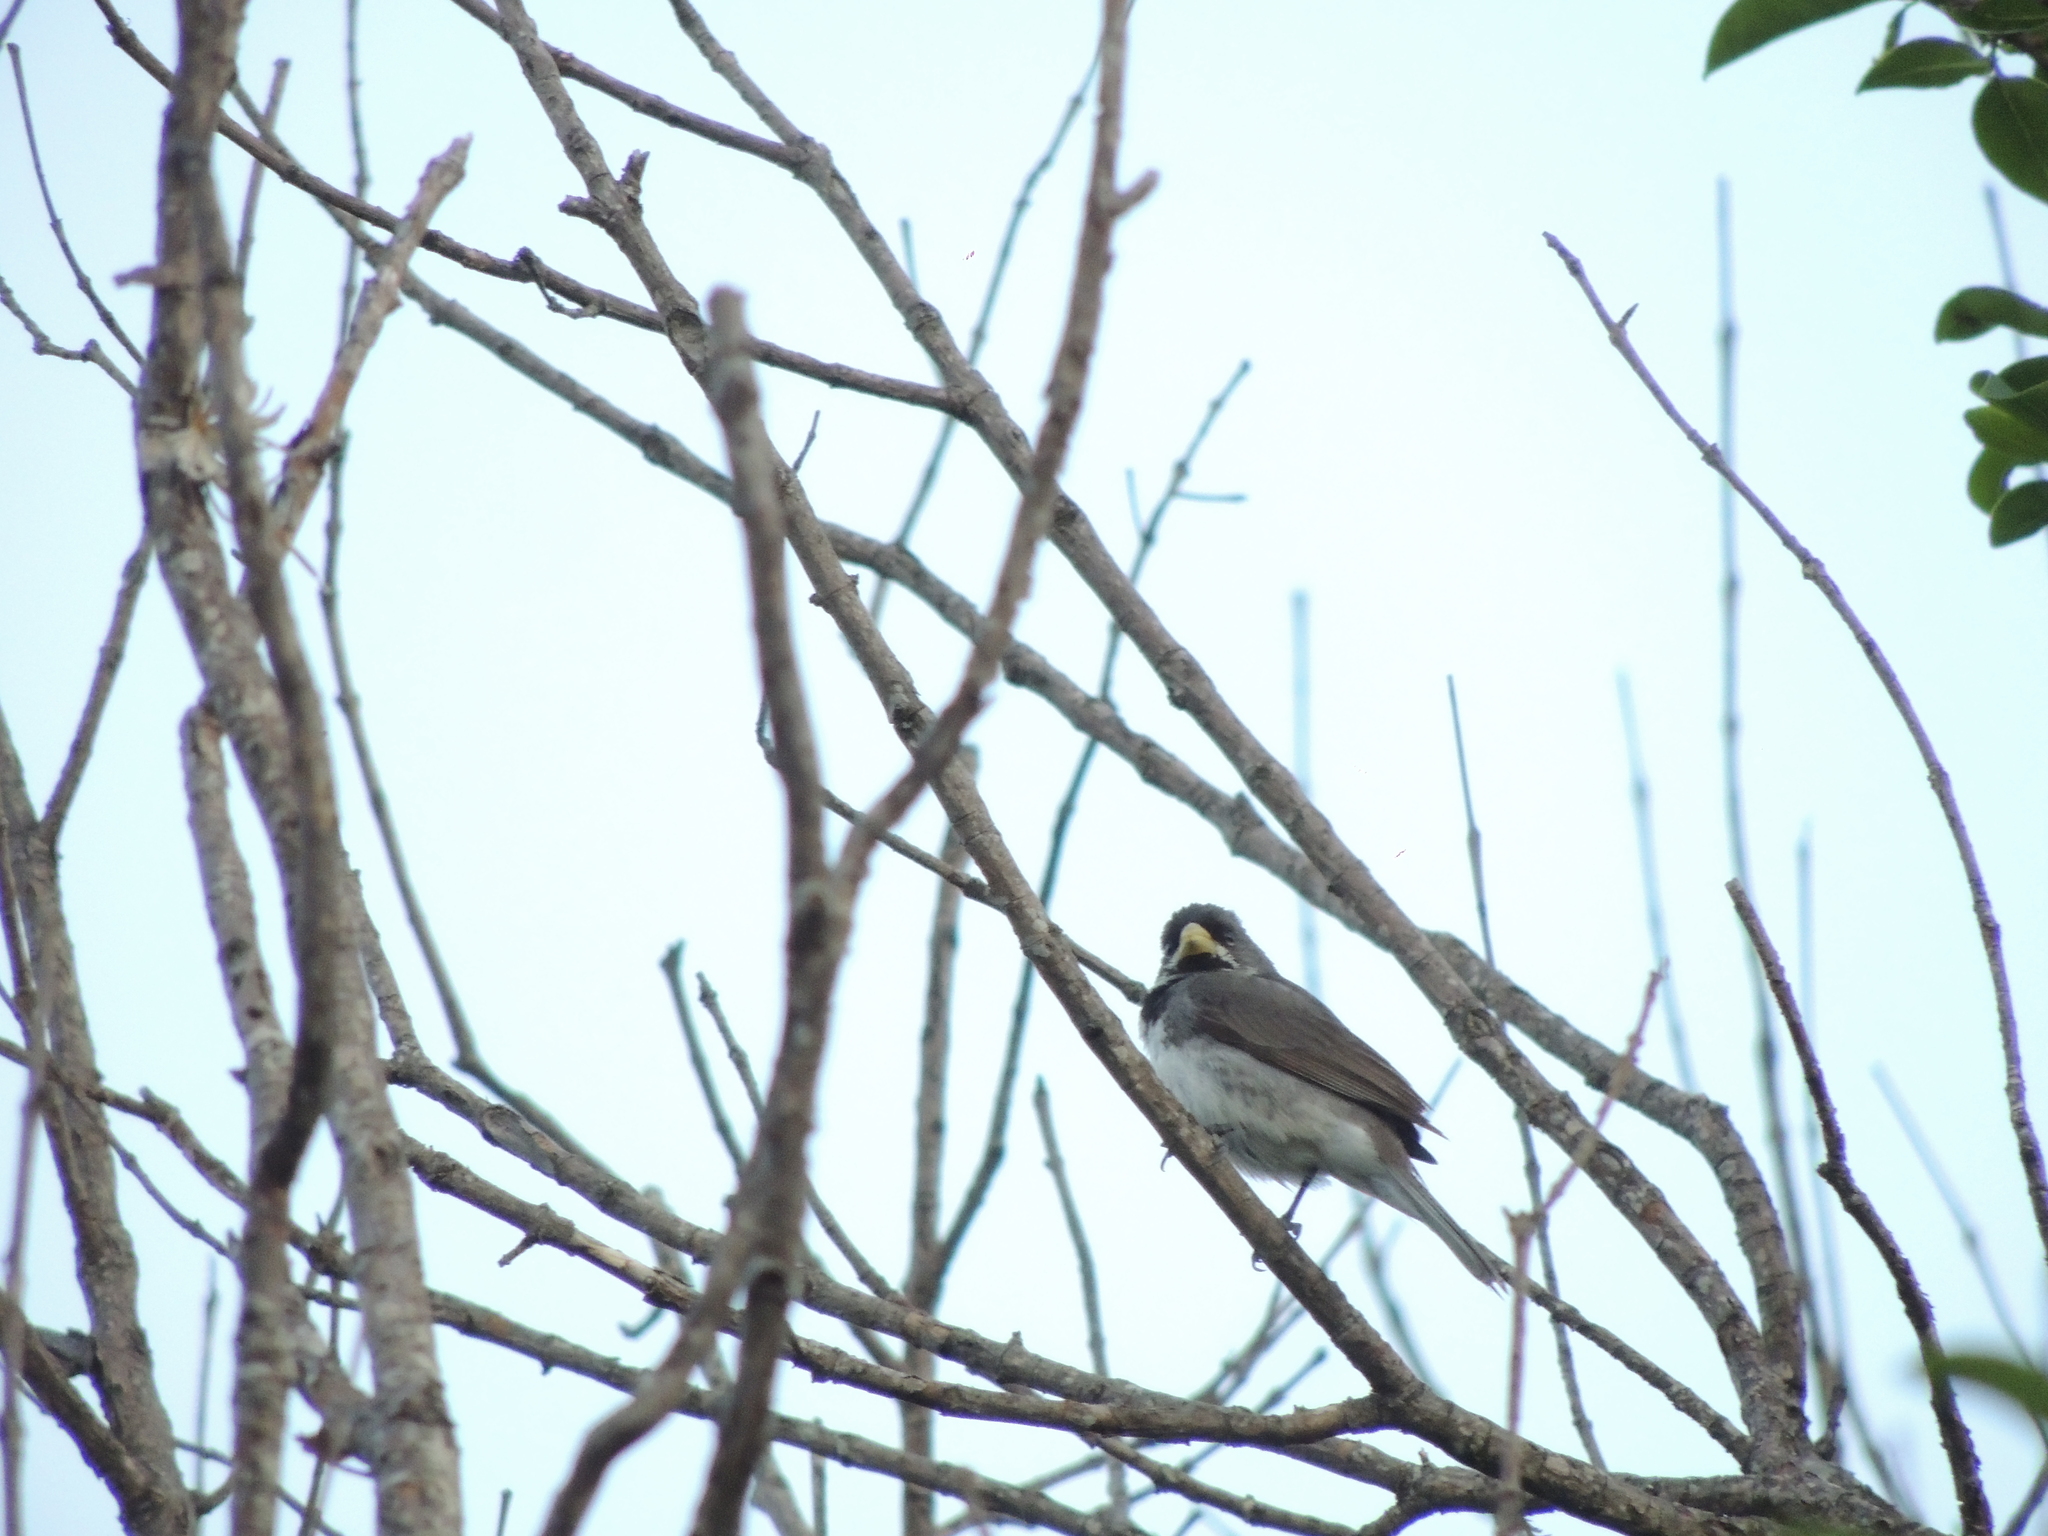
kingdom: Animalia
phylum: Chordata
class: Aves
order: Passeriformes
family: Thraupidae
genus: Sporophila
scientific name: Sporophila caerulescens
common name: Double-collared seedeater
